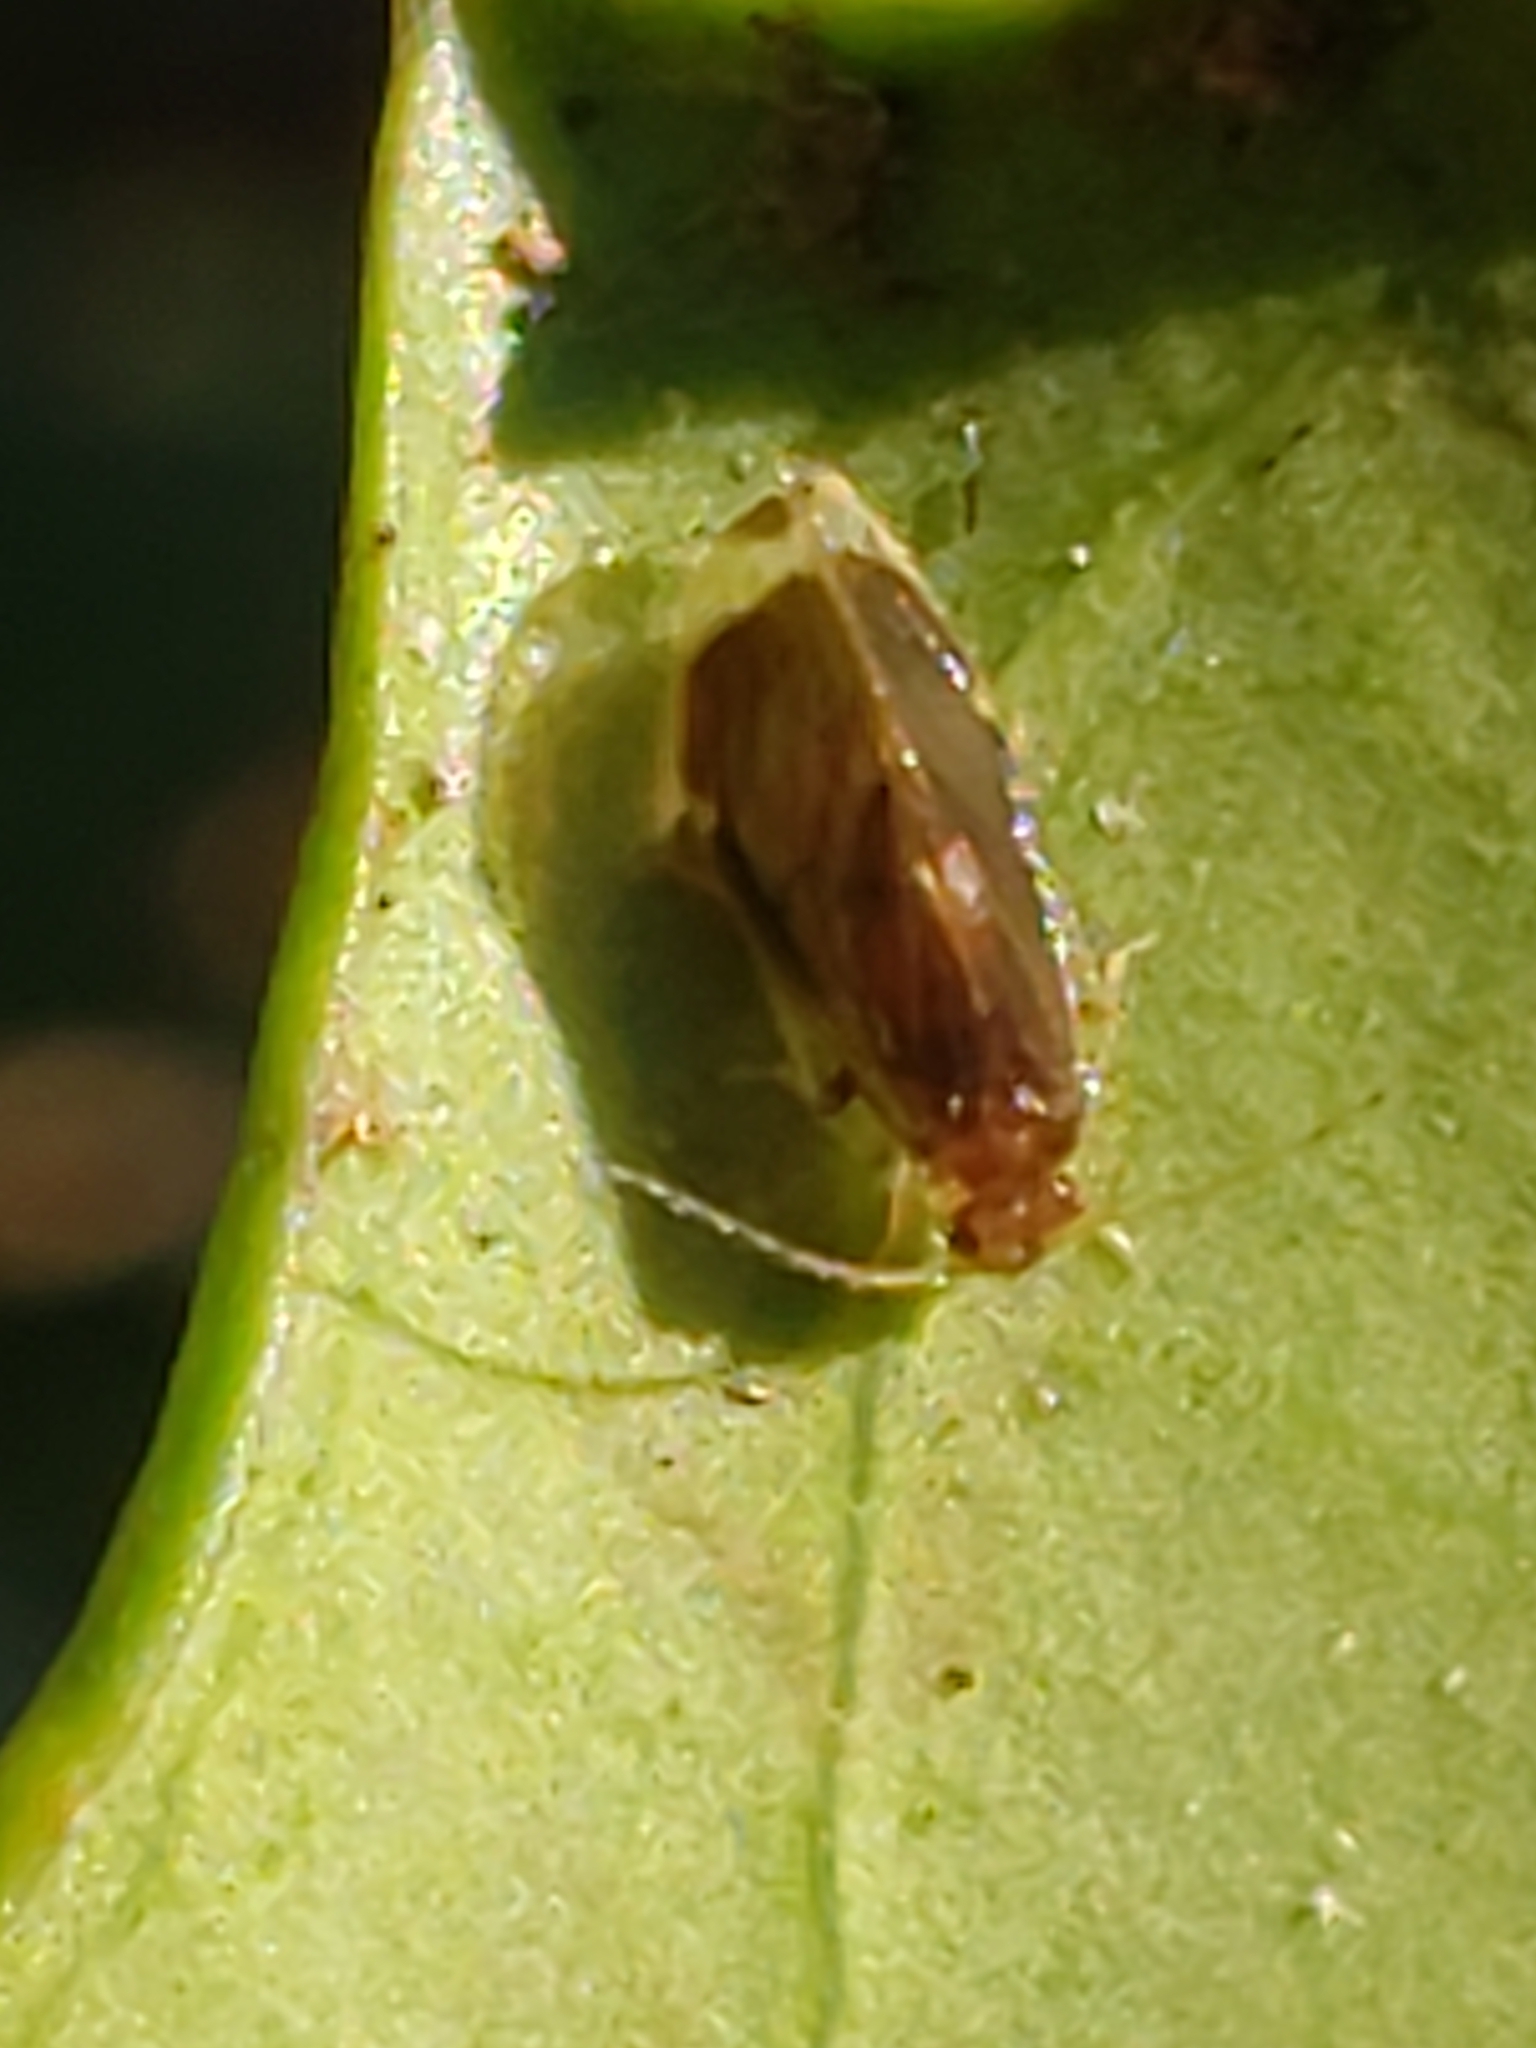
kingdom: Animalia
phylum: Arthropoda
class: Insecta
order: Psocodea
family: Amphipsocidae
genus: Polypsocus
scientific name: Polypsocus corruptus
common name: Corrupt barklouse
